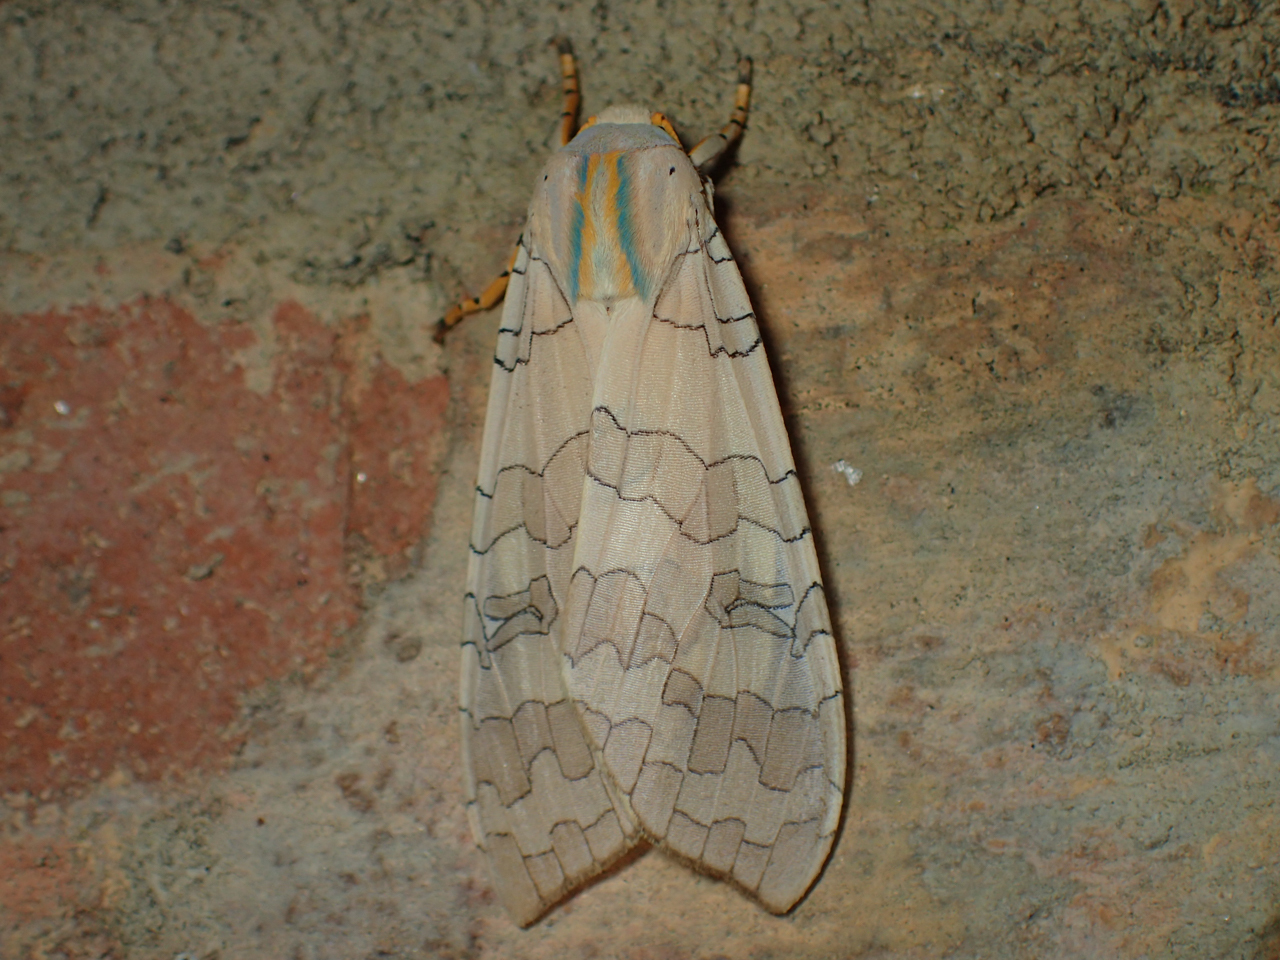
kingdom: Animalia
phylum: Arthropoda
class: Insecta
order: Lepidoptera
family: Erebidae
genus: Halysidota
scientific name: Halysidota
